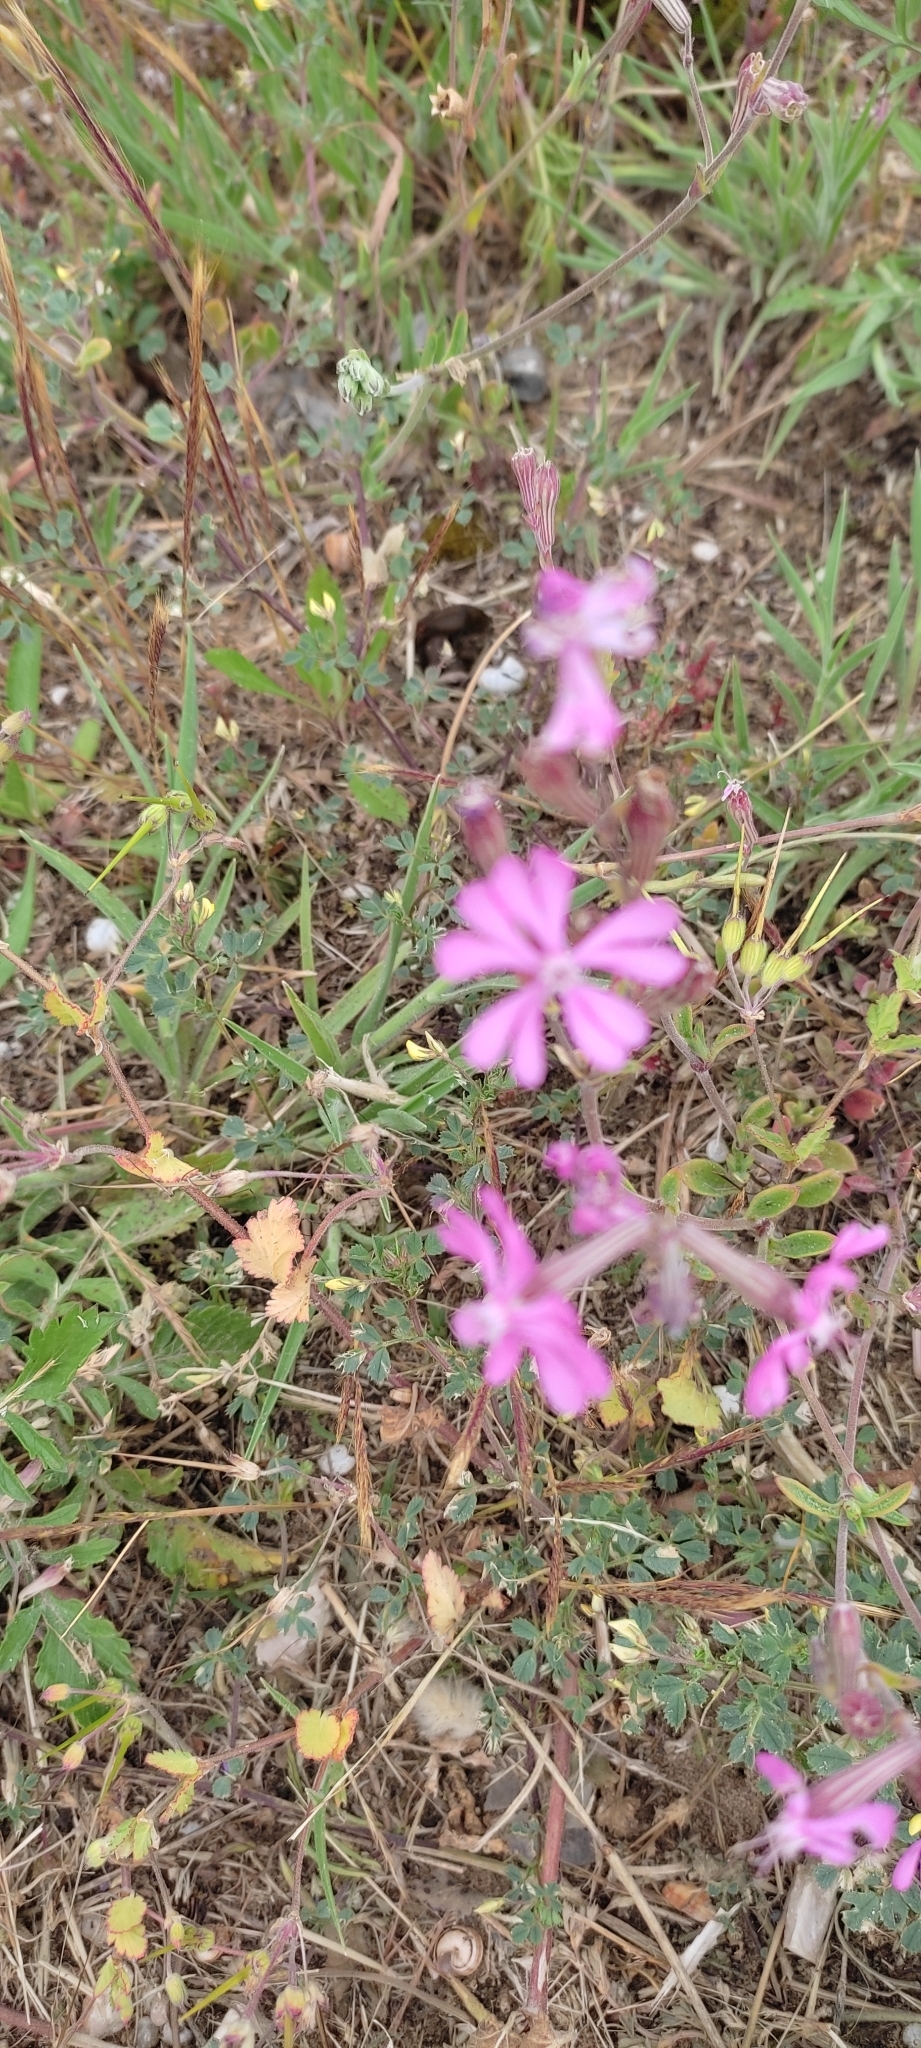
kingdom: Plantae
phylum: Tracheophyta
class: Magnoliopsida
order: Caryophyllales
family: Caryophyllaceae
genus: Silene
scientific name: Silene dioica
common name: Red campion
